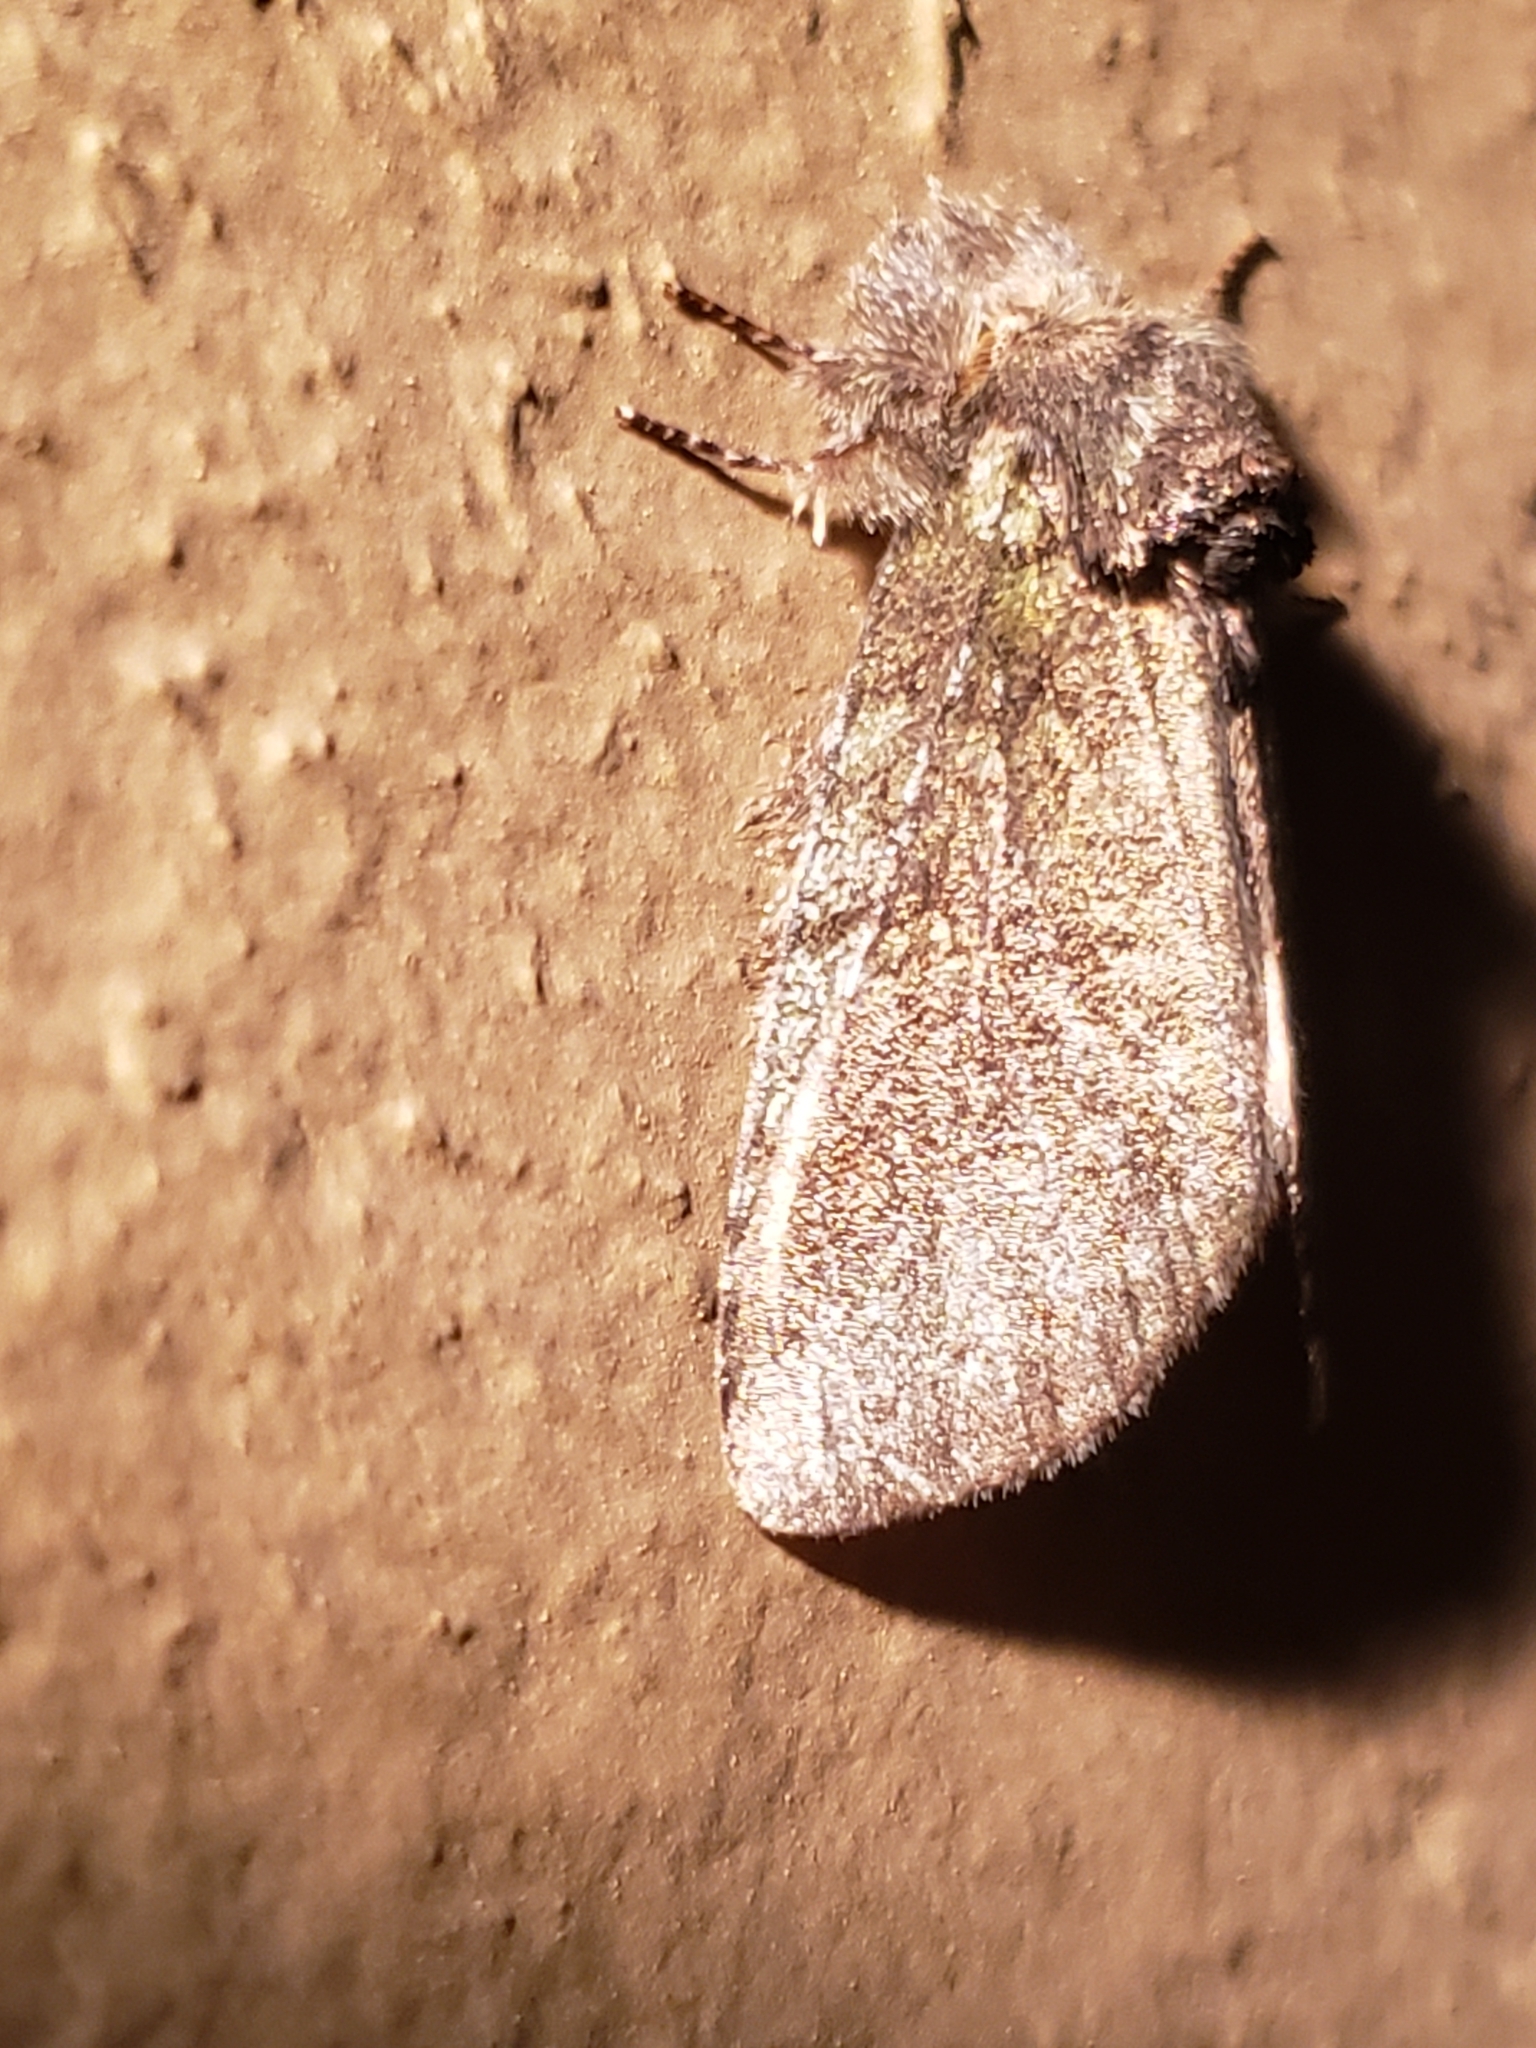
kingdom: Animalia
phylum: Arthropoda
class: Insecta
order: Lepidoptera
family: Notodontidae
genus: Disphragis
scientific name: Disphragis Cecrita guttivitta
